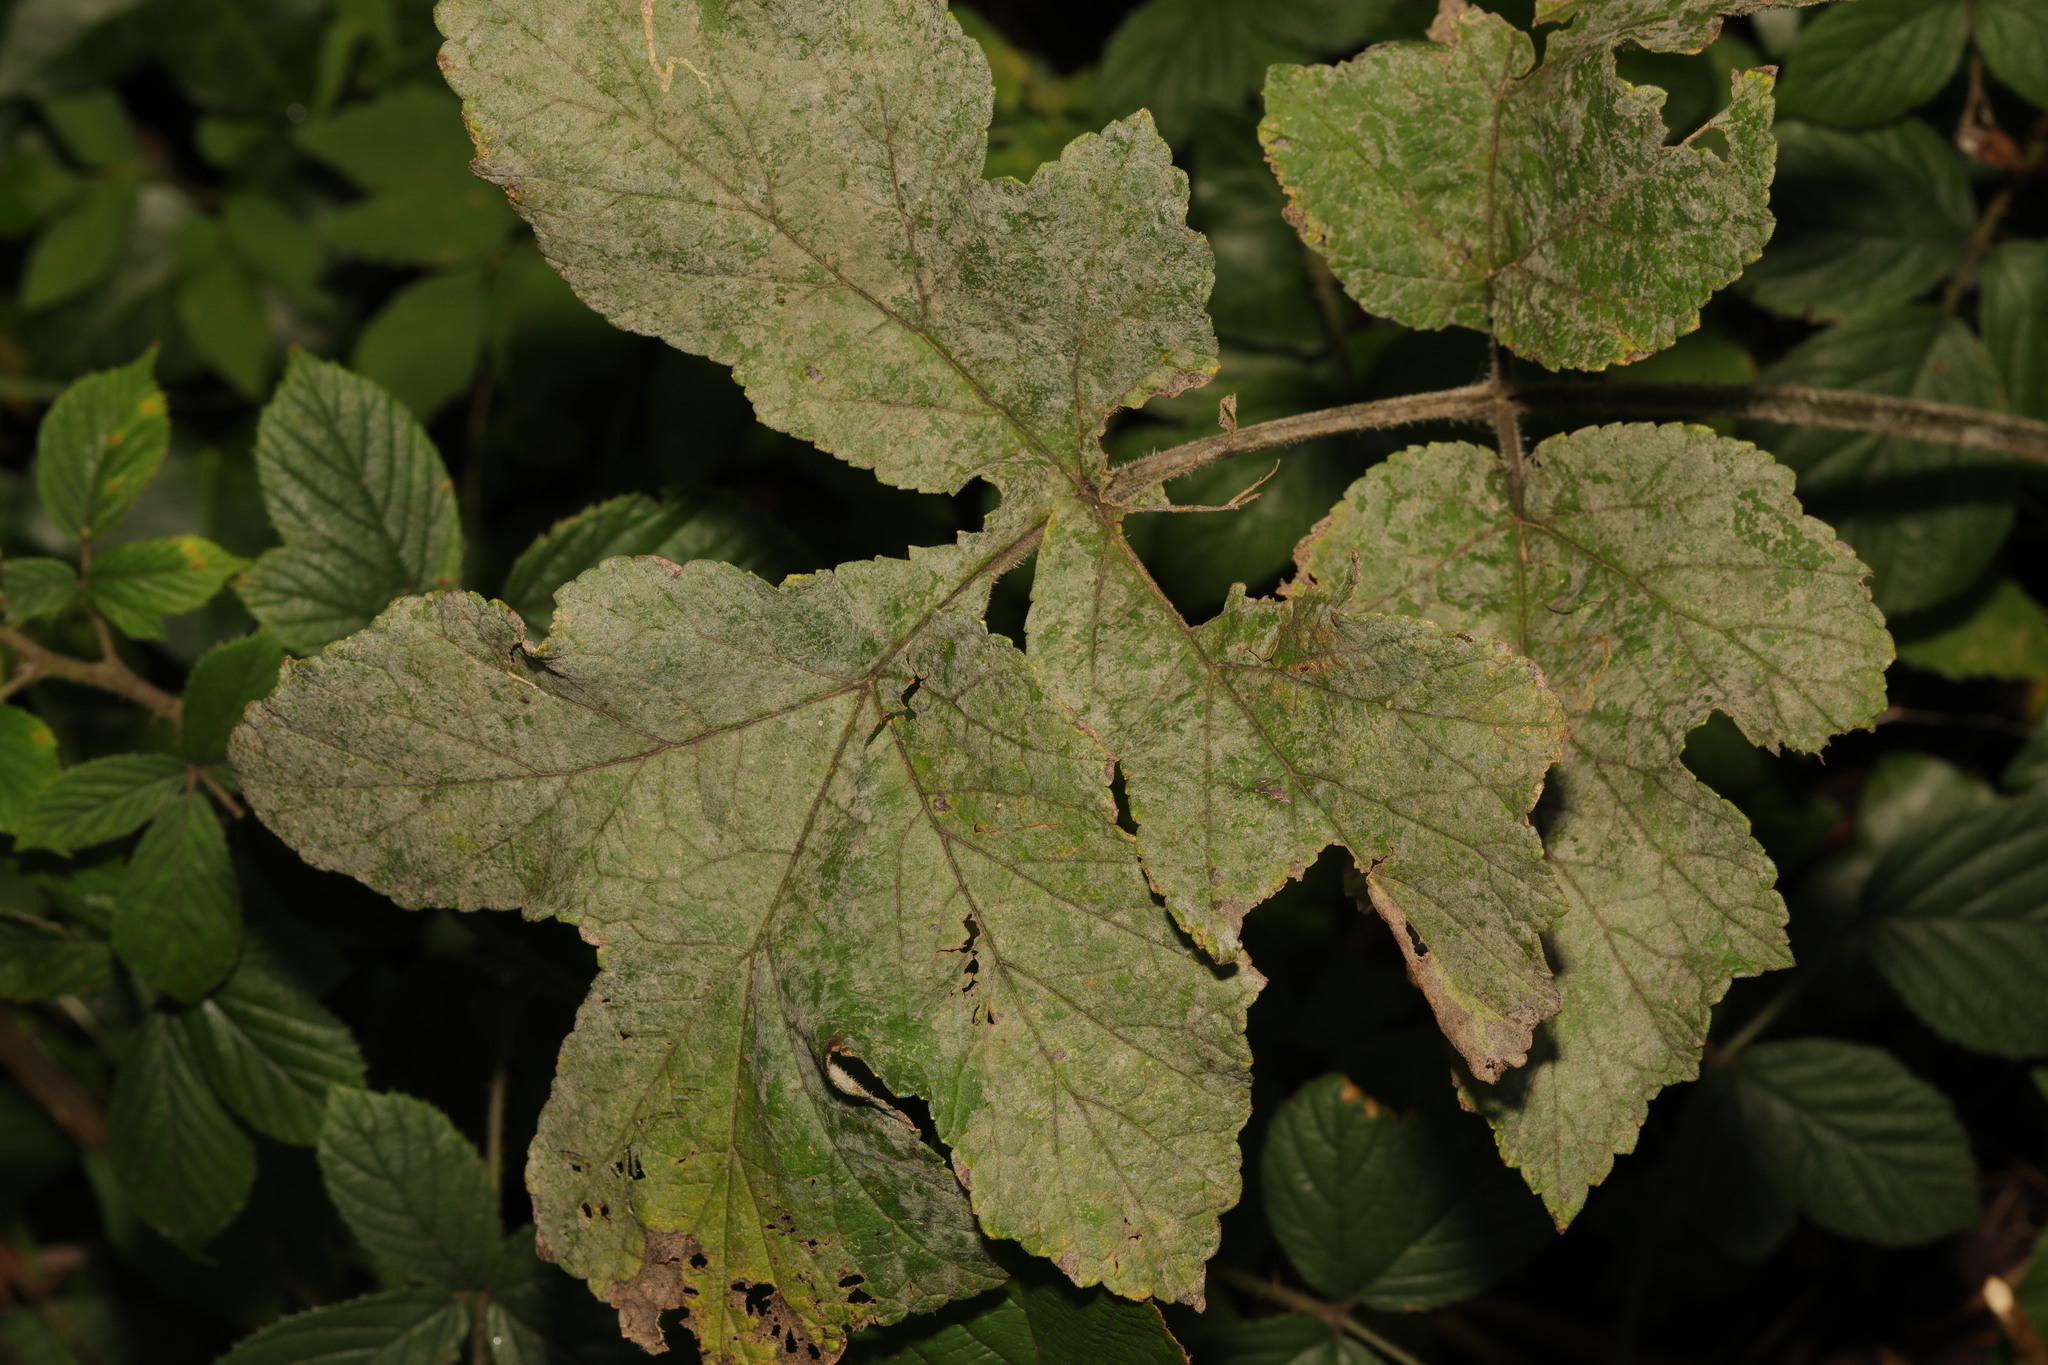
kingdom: Fungi
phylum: Ascomycota
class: Leotiomycetes
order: Helotiales
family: Erysiphaceae
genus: Erysiphe
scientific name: Erysiphe heraclei
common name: Umbellifer mildew
